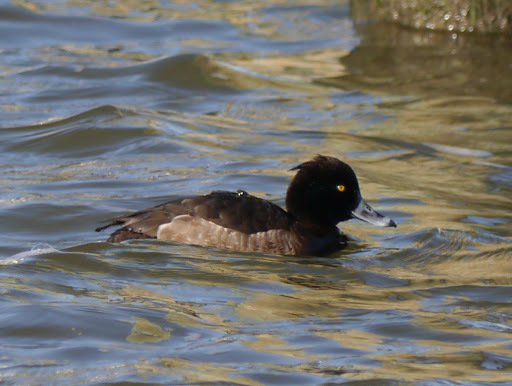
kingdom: Animalia
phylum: Chordata
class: Aves
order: Anseriformes
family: Anatidae
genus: Aythya
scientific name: Aythya fuligula
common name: Tufted duck
